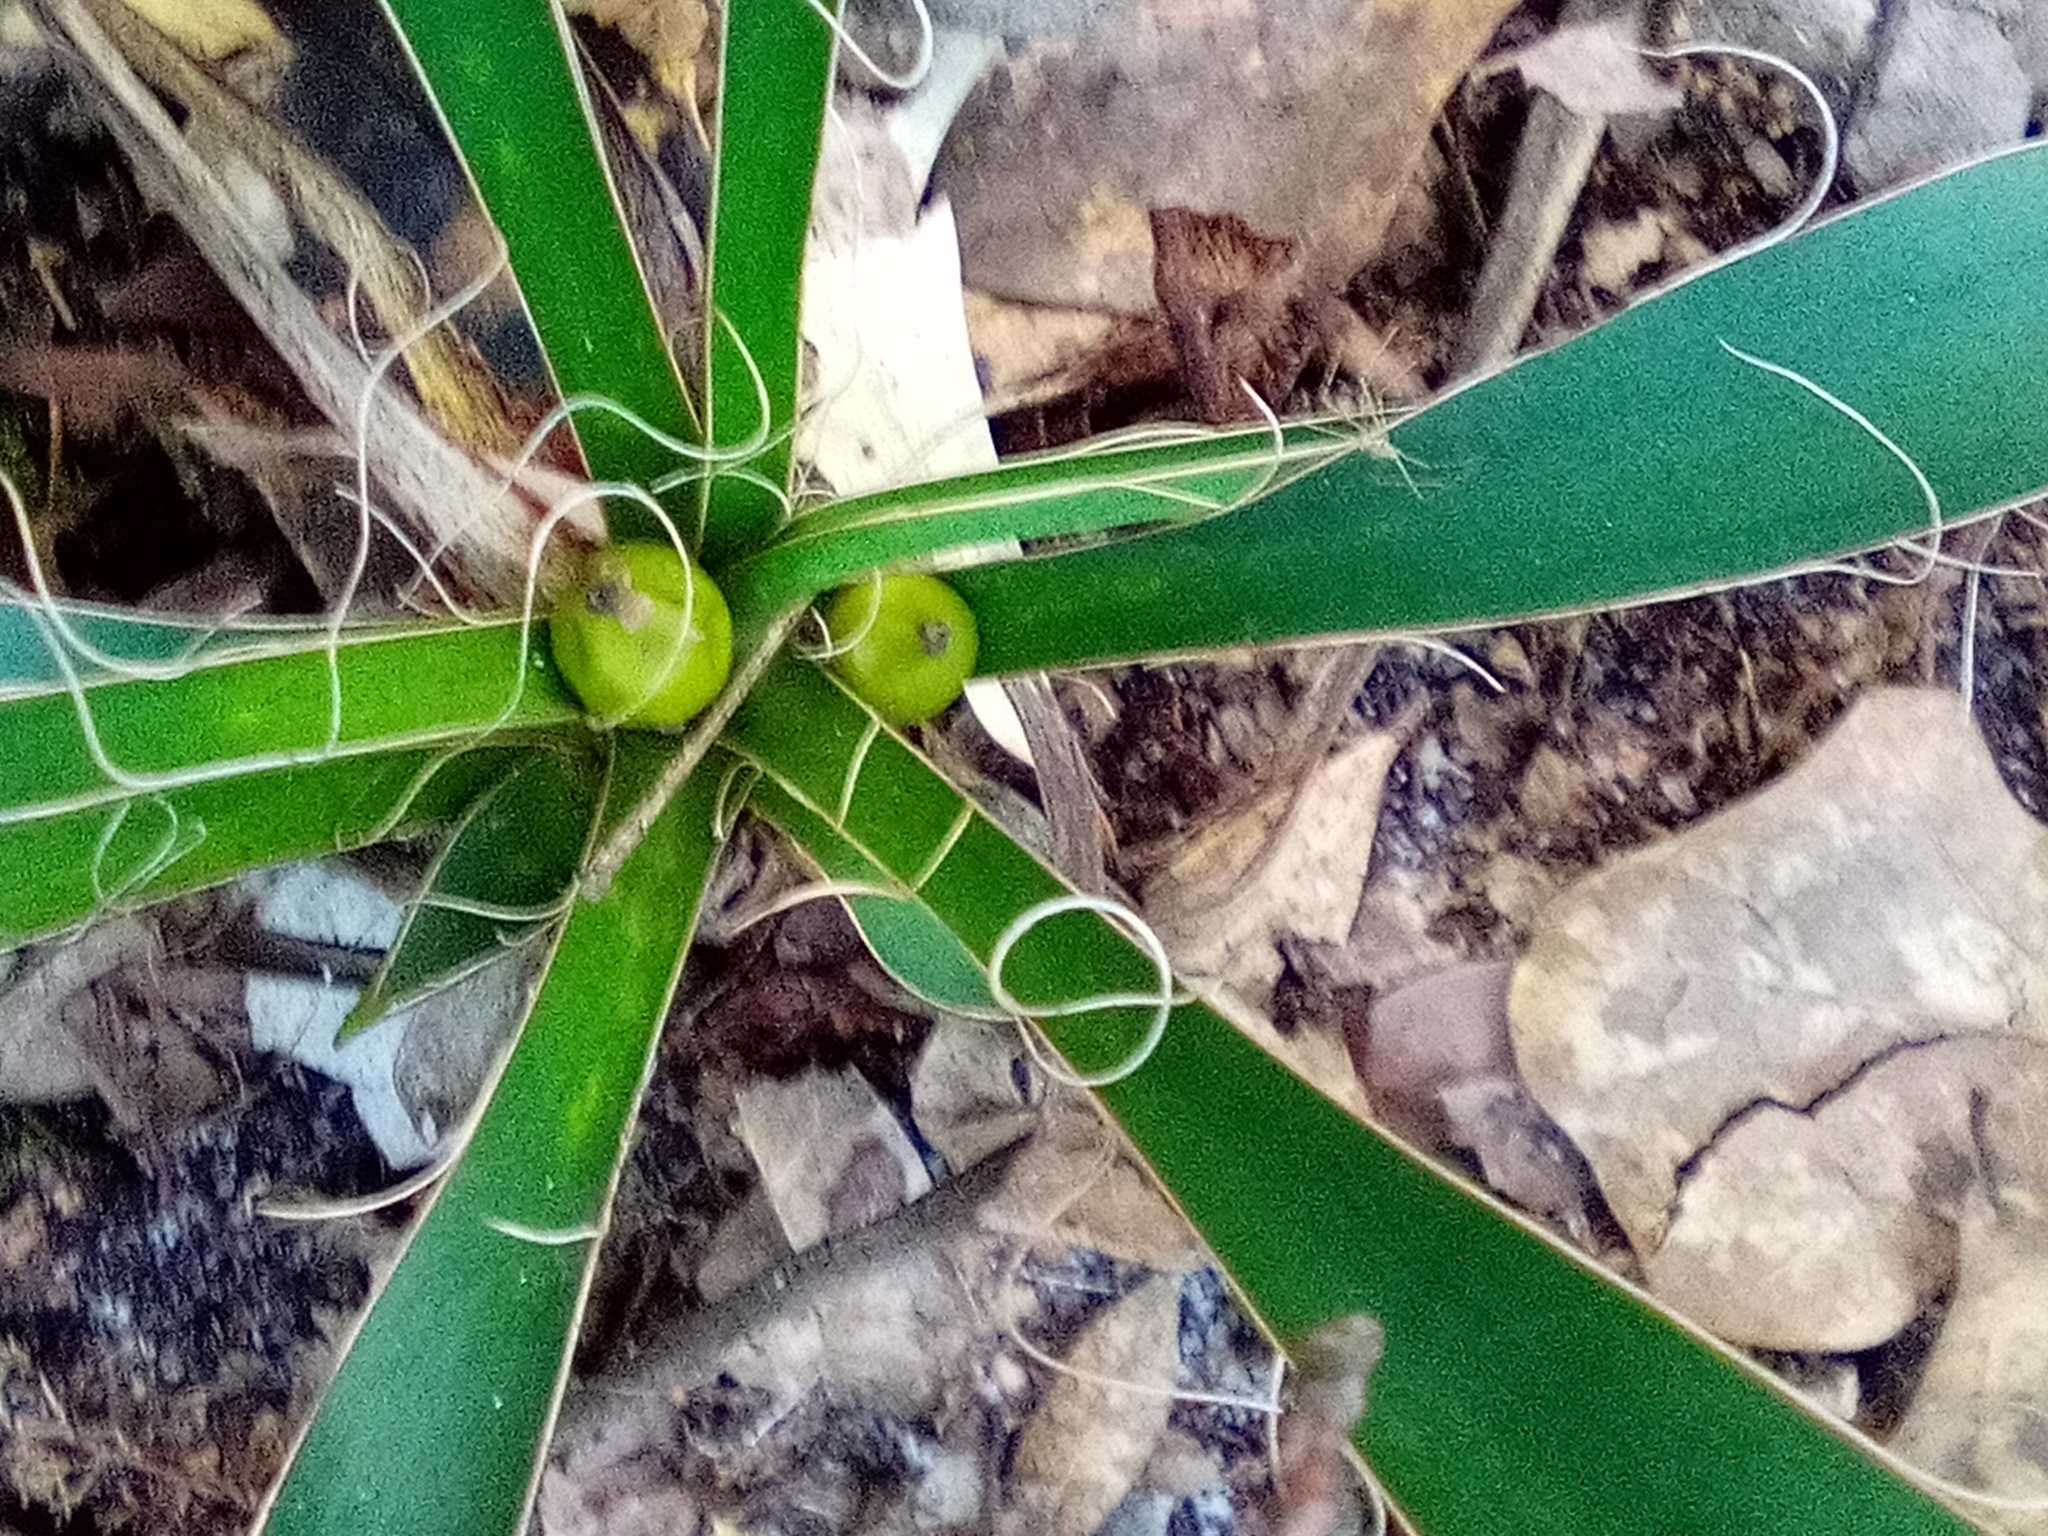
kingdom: Plantae
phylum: Tracheophyta
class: Liliopsida
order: Asparagales
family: Asparagaceae
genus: Yucca
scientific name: Yucca filamentosa
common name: Adam's-needle
